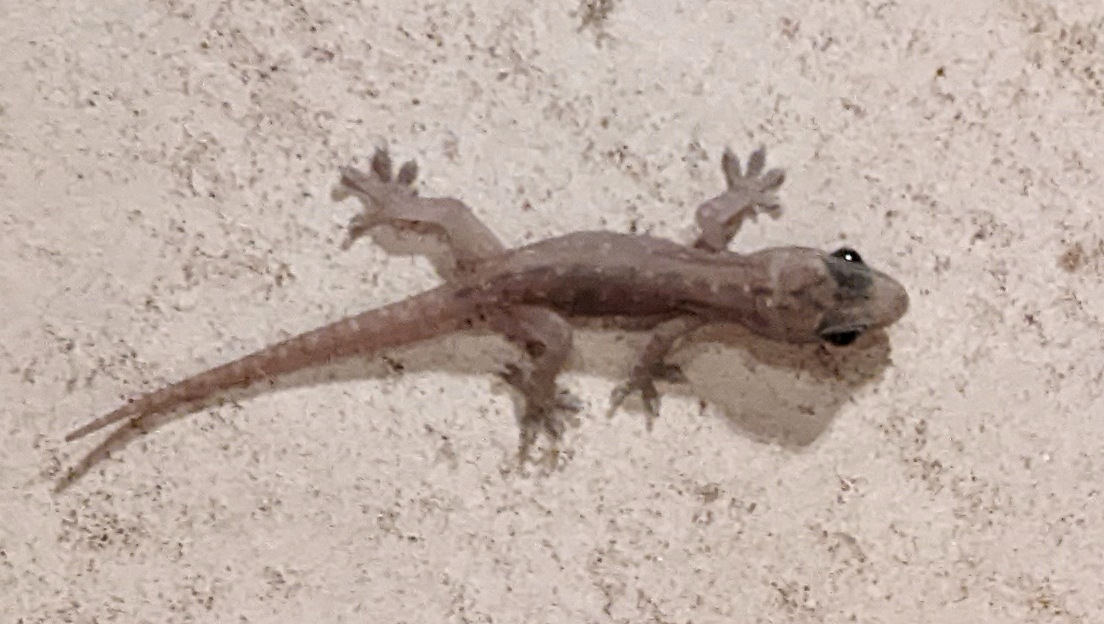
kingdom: Animalia
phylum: Chordata
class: Squamata
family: Gekkonidae
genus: Hemidactylus
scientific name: Hemidactylus frenatus
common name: Common house gecko
